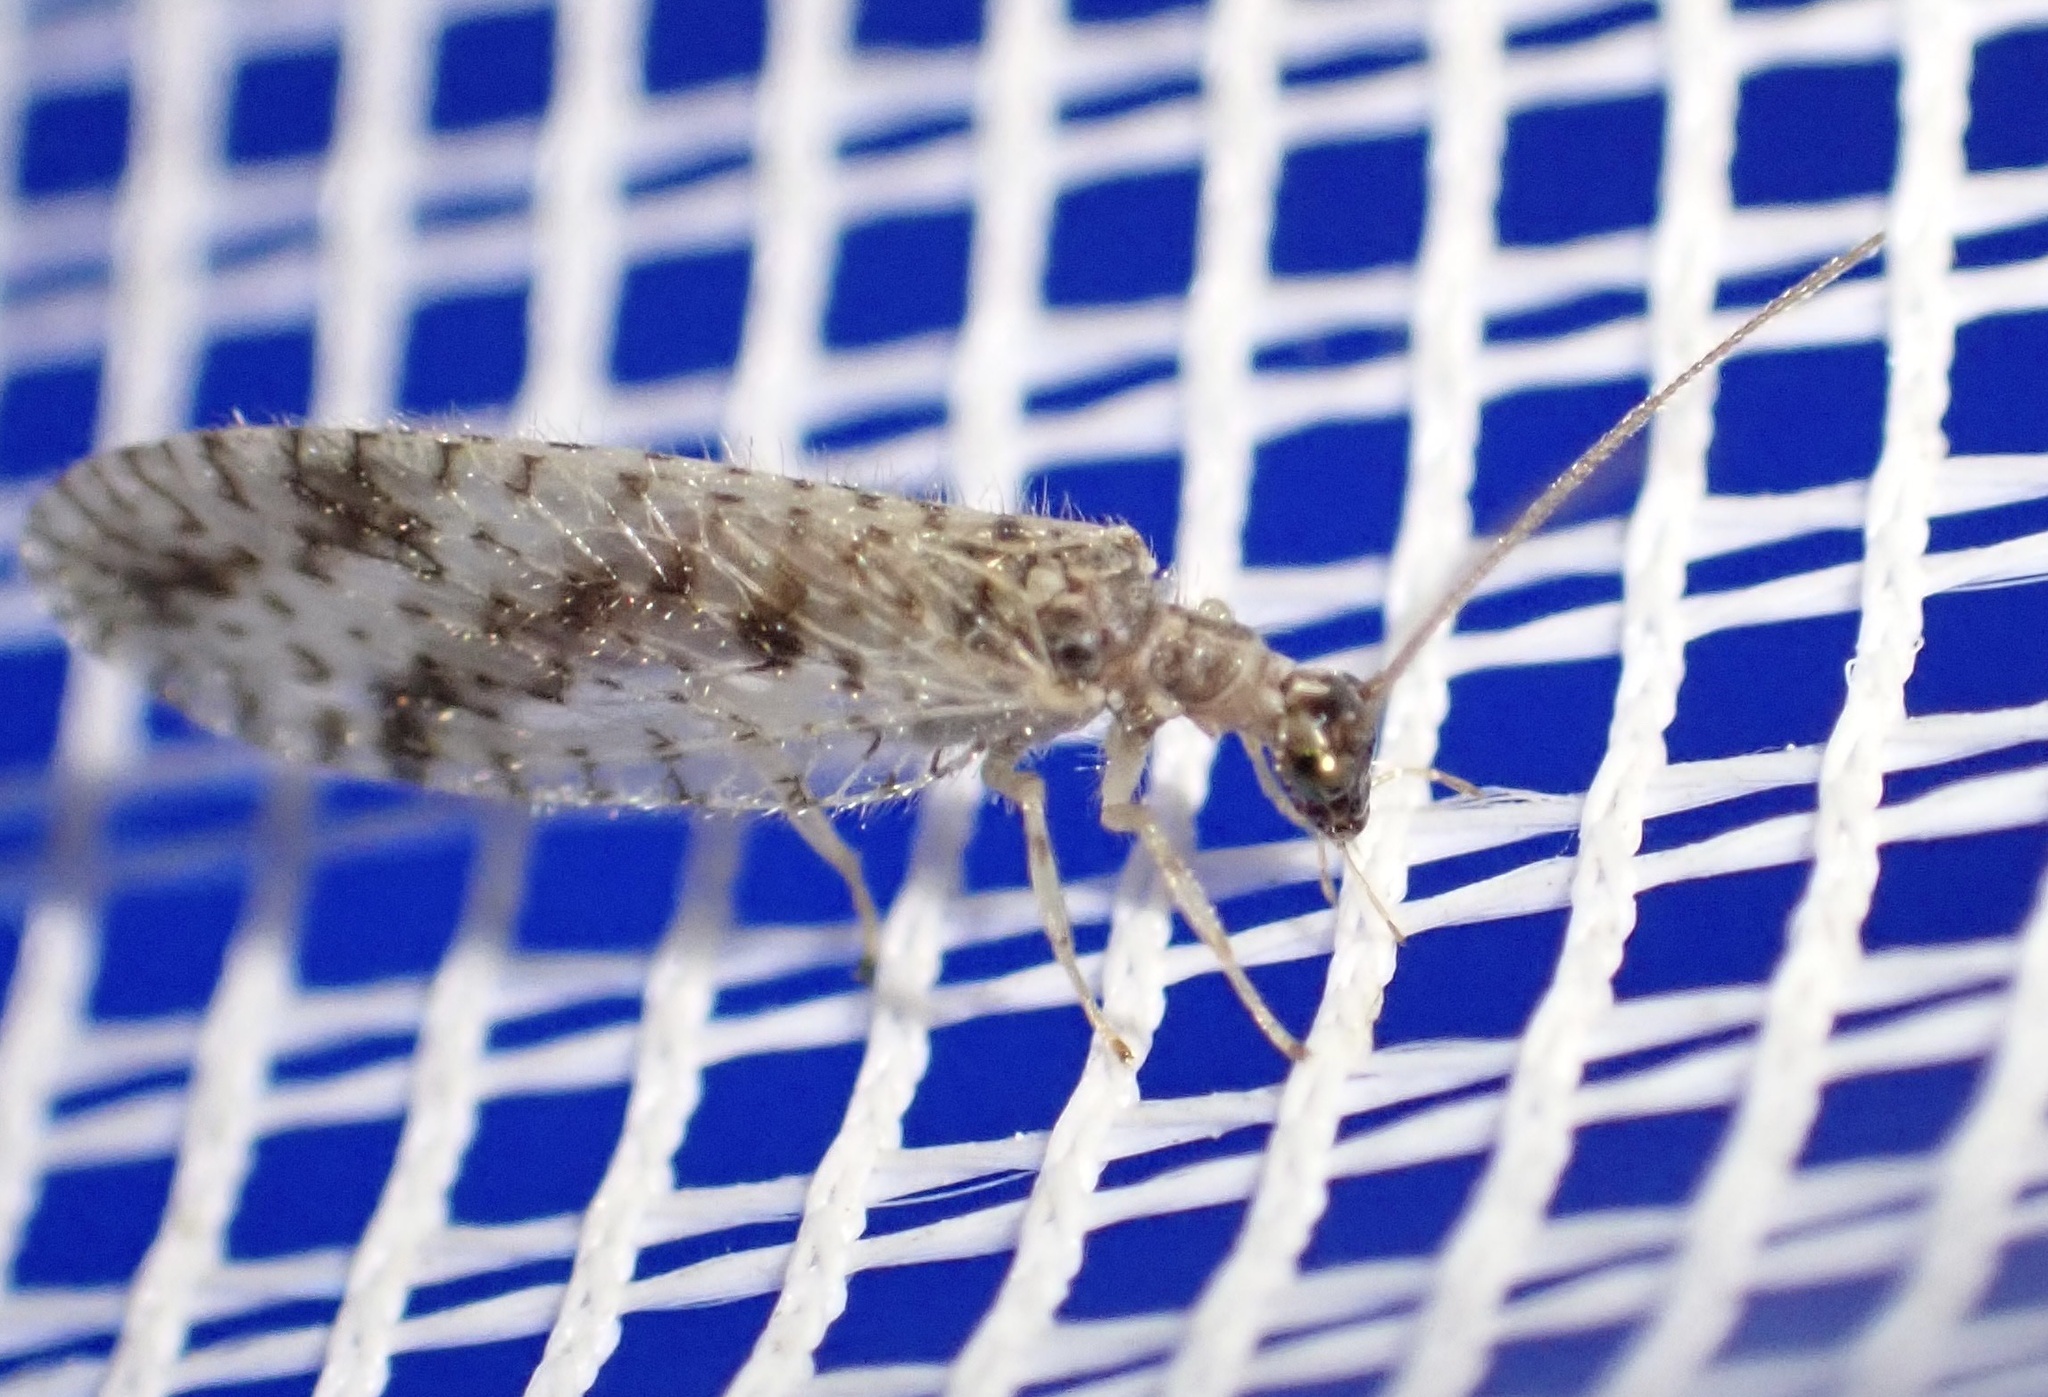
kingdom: Animalia
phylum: Arthropoda
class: Insecta
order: Neuroptera
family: Hemerobiidae
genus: Micromus
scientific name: Micromus variegatus
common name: Brown lacewing
